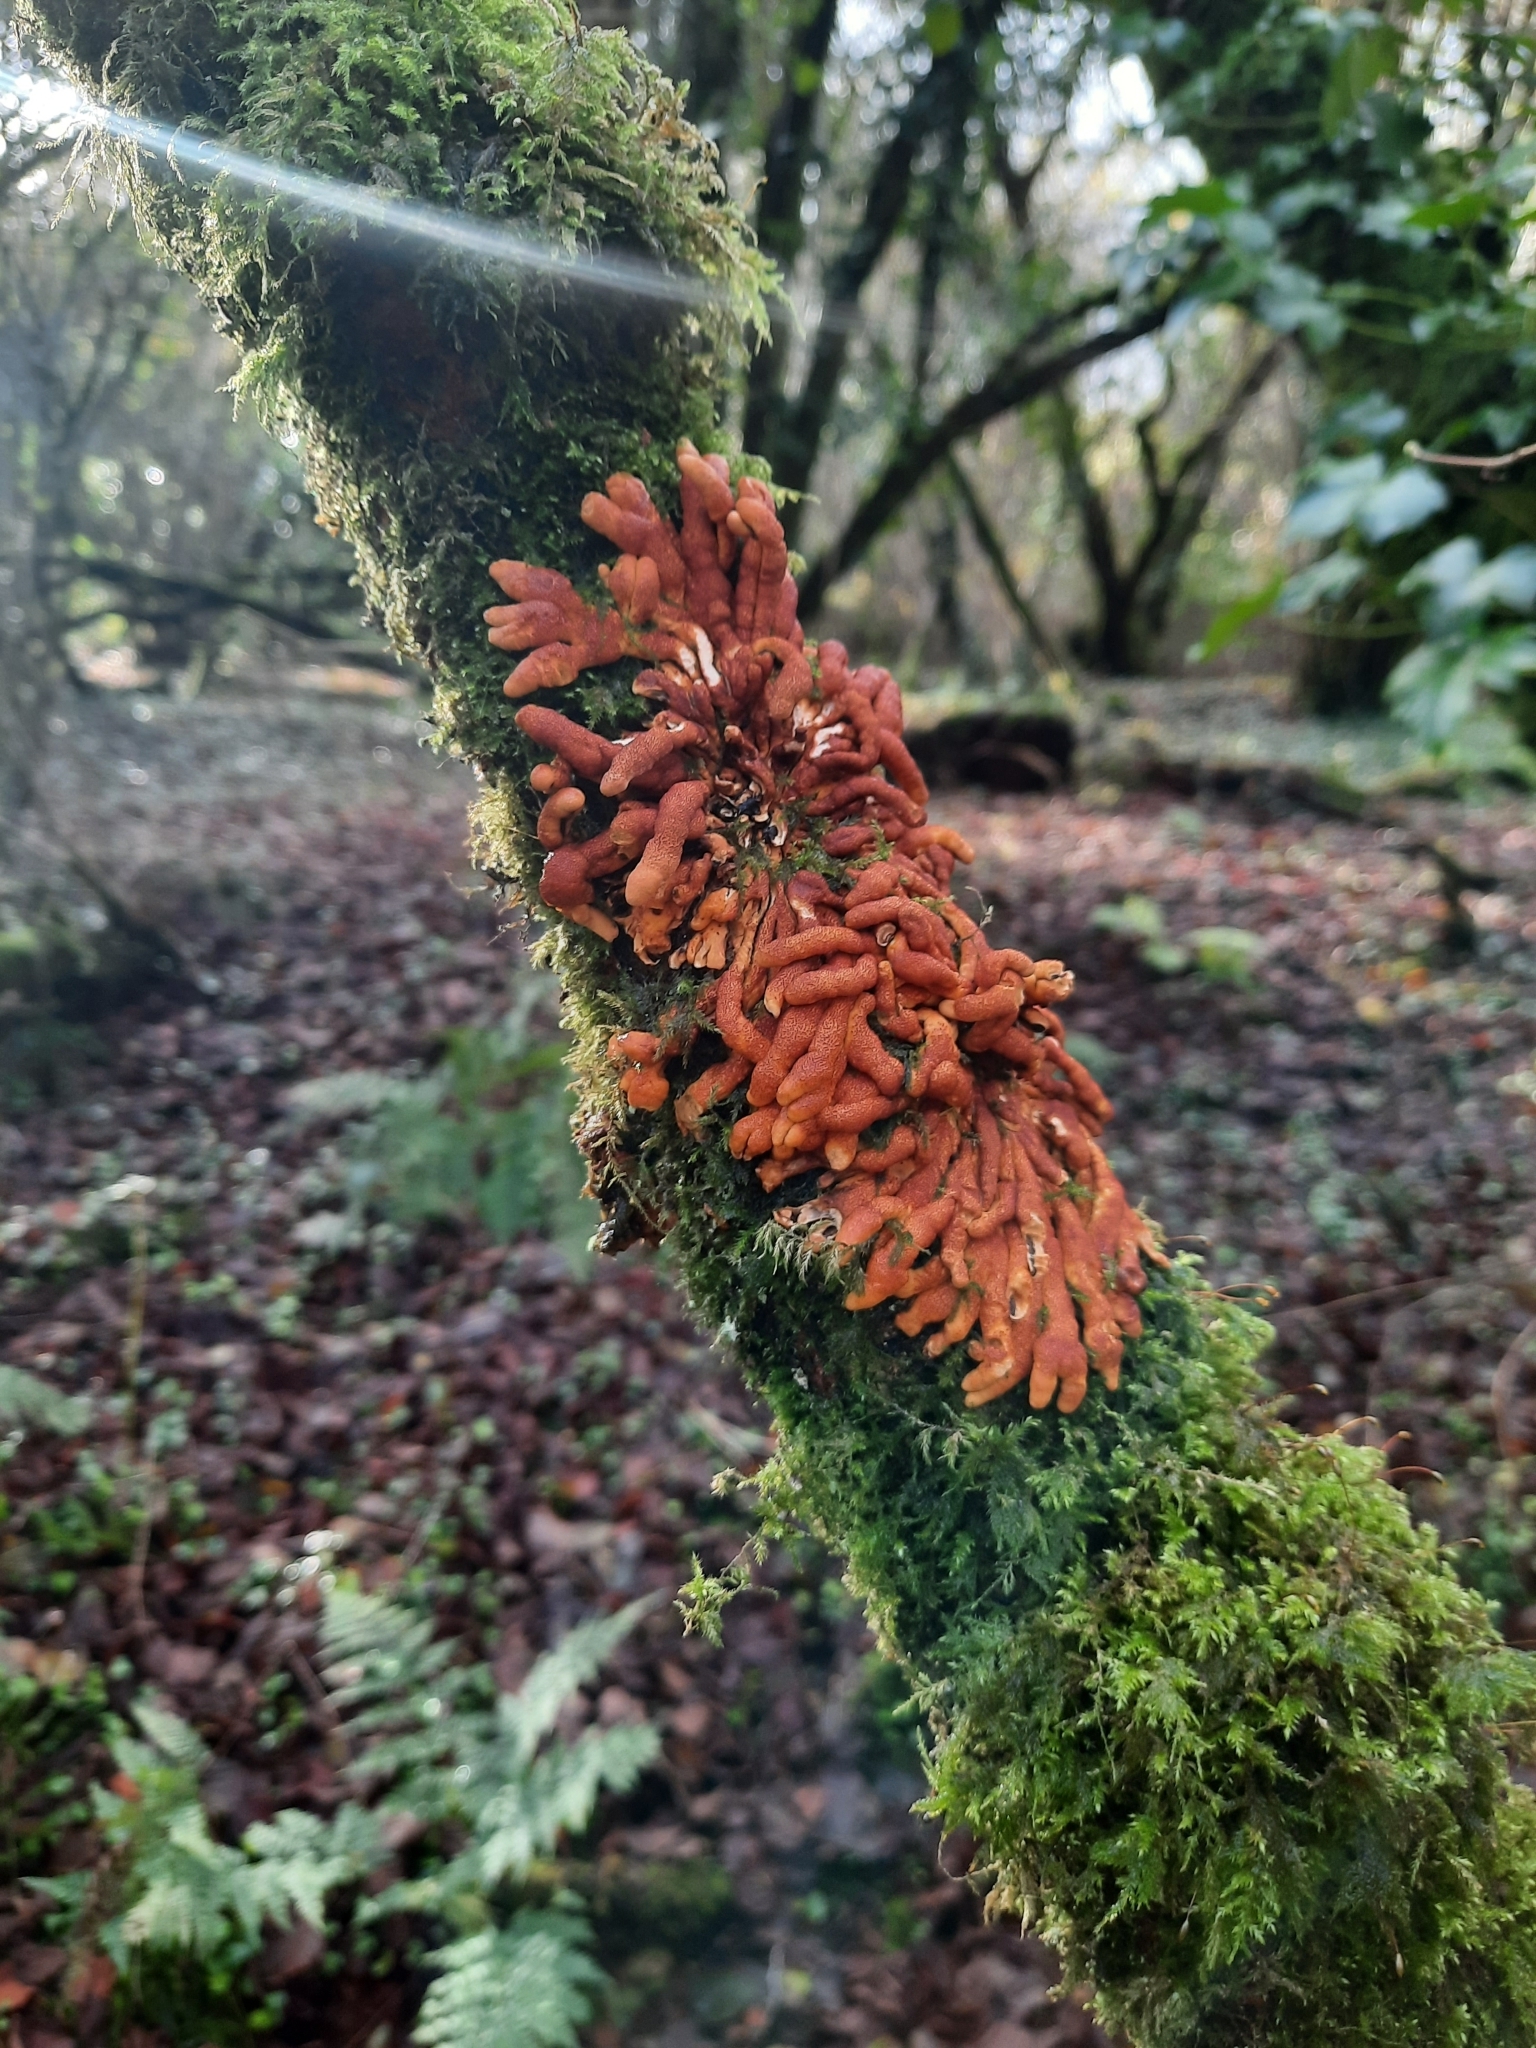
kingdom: Fungi
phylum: Ascomycota
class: Sordariomycetes
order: Hypocreales
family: Hypocreaceae
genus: Hypocreopsis
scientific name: Hypocreopsis rhododendri
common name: Hazel gloves
